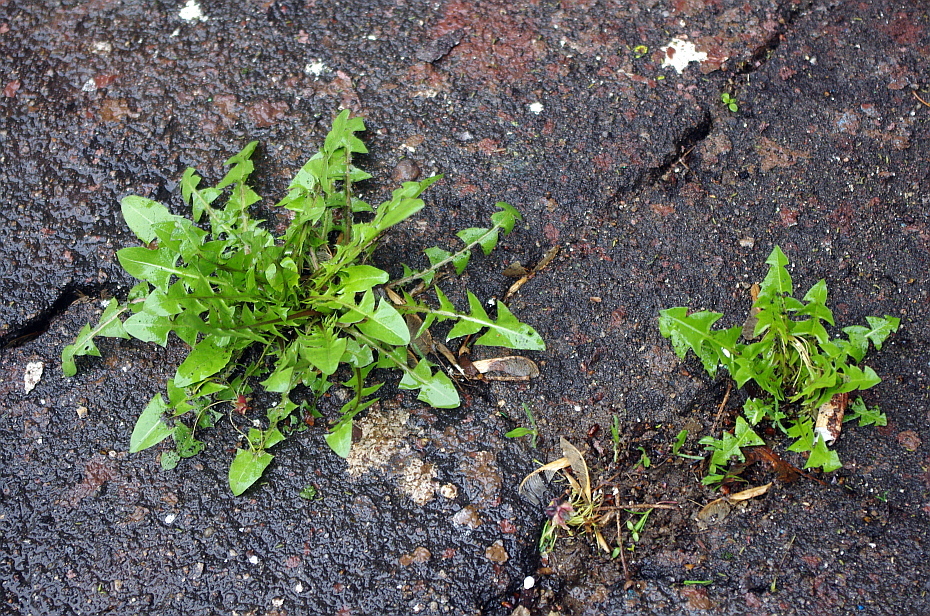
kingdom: Plantae
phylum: Tracheophyta
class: Magnoliopsida
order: Asterales
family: Asteraceae
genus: Taraxacum
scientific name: Taraxacum officinale
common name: Common dandelion
